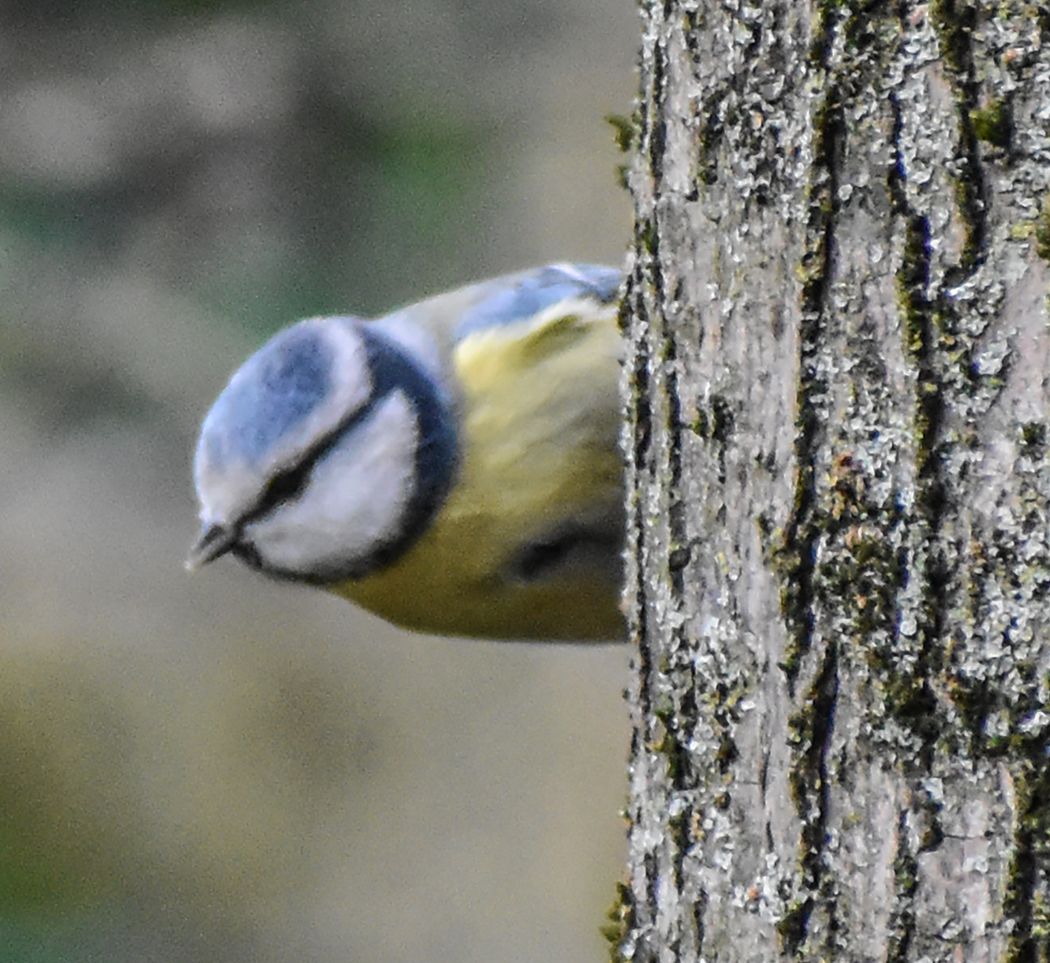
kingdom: Animalia
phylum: Chordata
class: Aves
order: Passeriformes
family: Paridae
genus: Cyanistes
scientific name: Cyanistes caeruleus
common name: Eurasian blue tit
